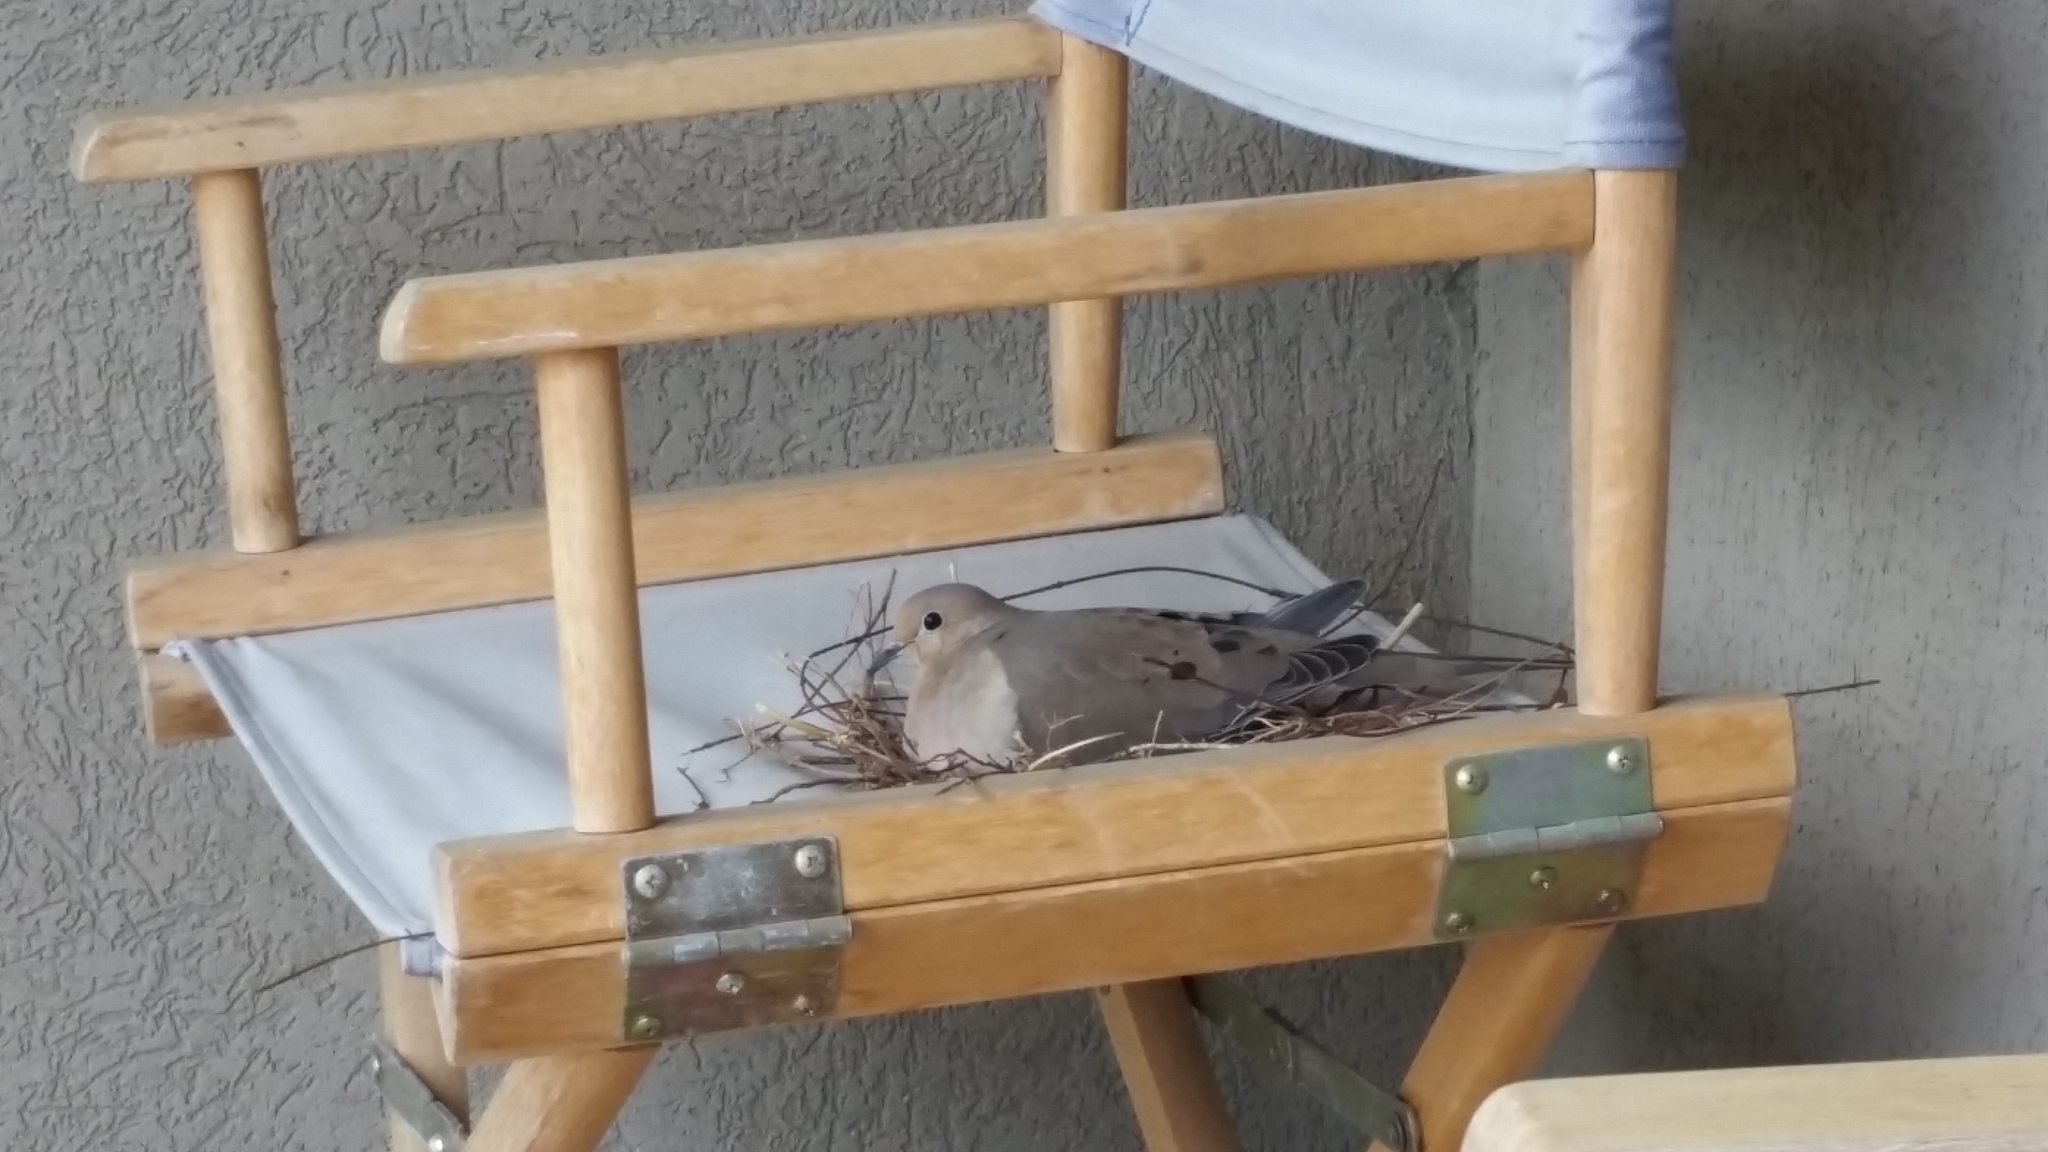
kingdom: Animalia
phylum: Chordata
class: Aves
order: Columbiformes
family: Columbidae
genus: Zenaida
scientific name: Zenaida macroura
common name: Mourning dove
